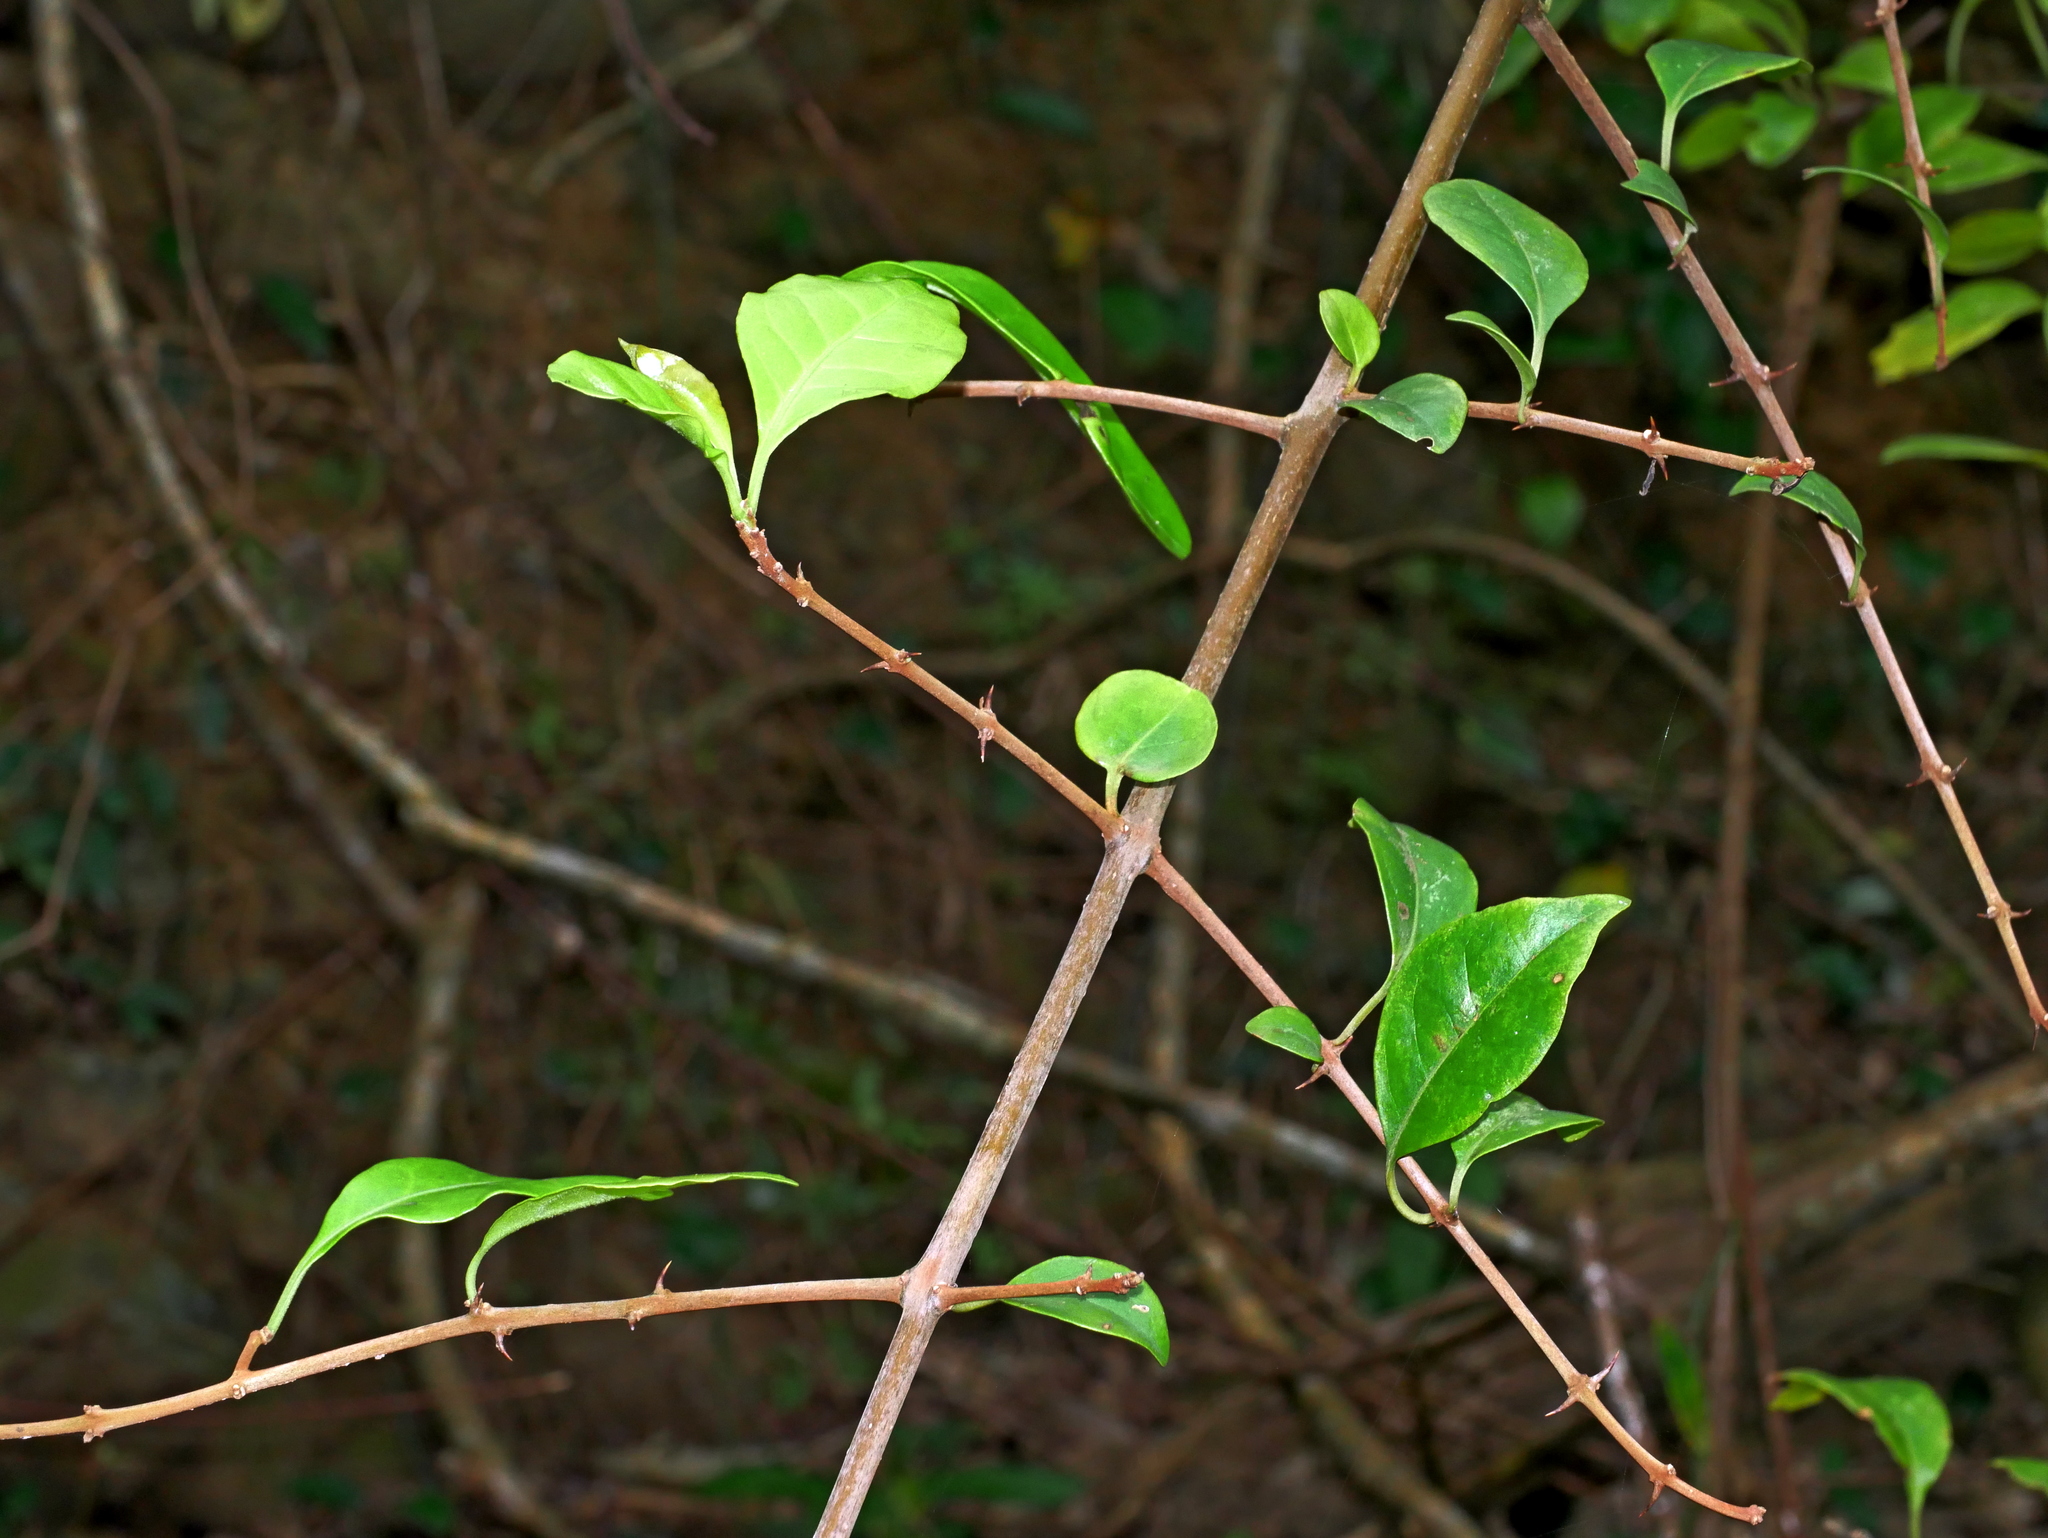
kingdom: Plantae
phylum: Tracheophyta
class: Magnoliopsida
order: Caryophyllales
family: Nyctaginaceae
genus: Pisonia
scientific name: Pisonia aculeata
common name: Cockspur vine
